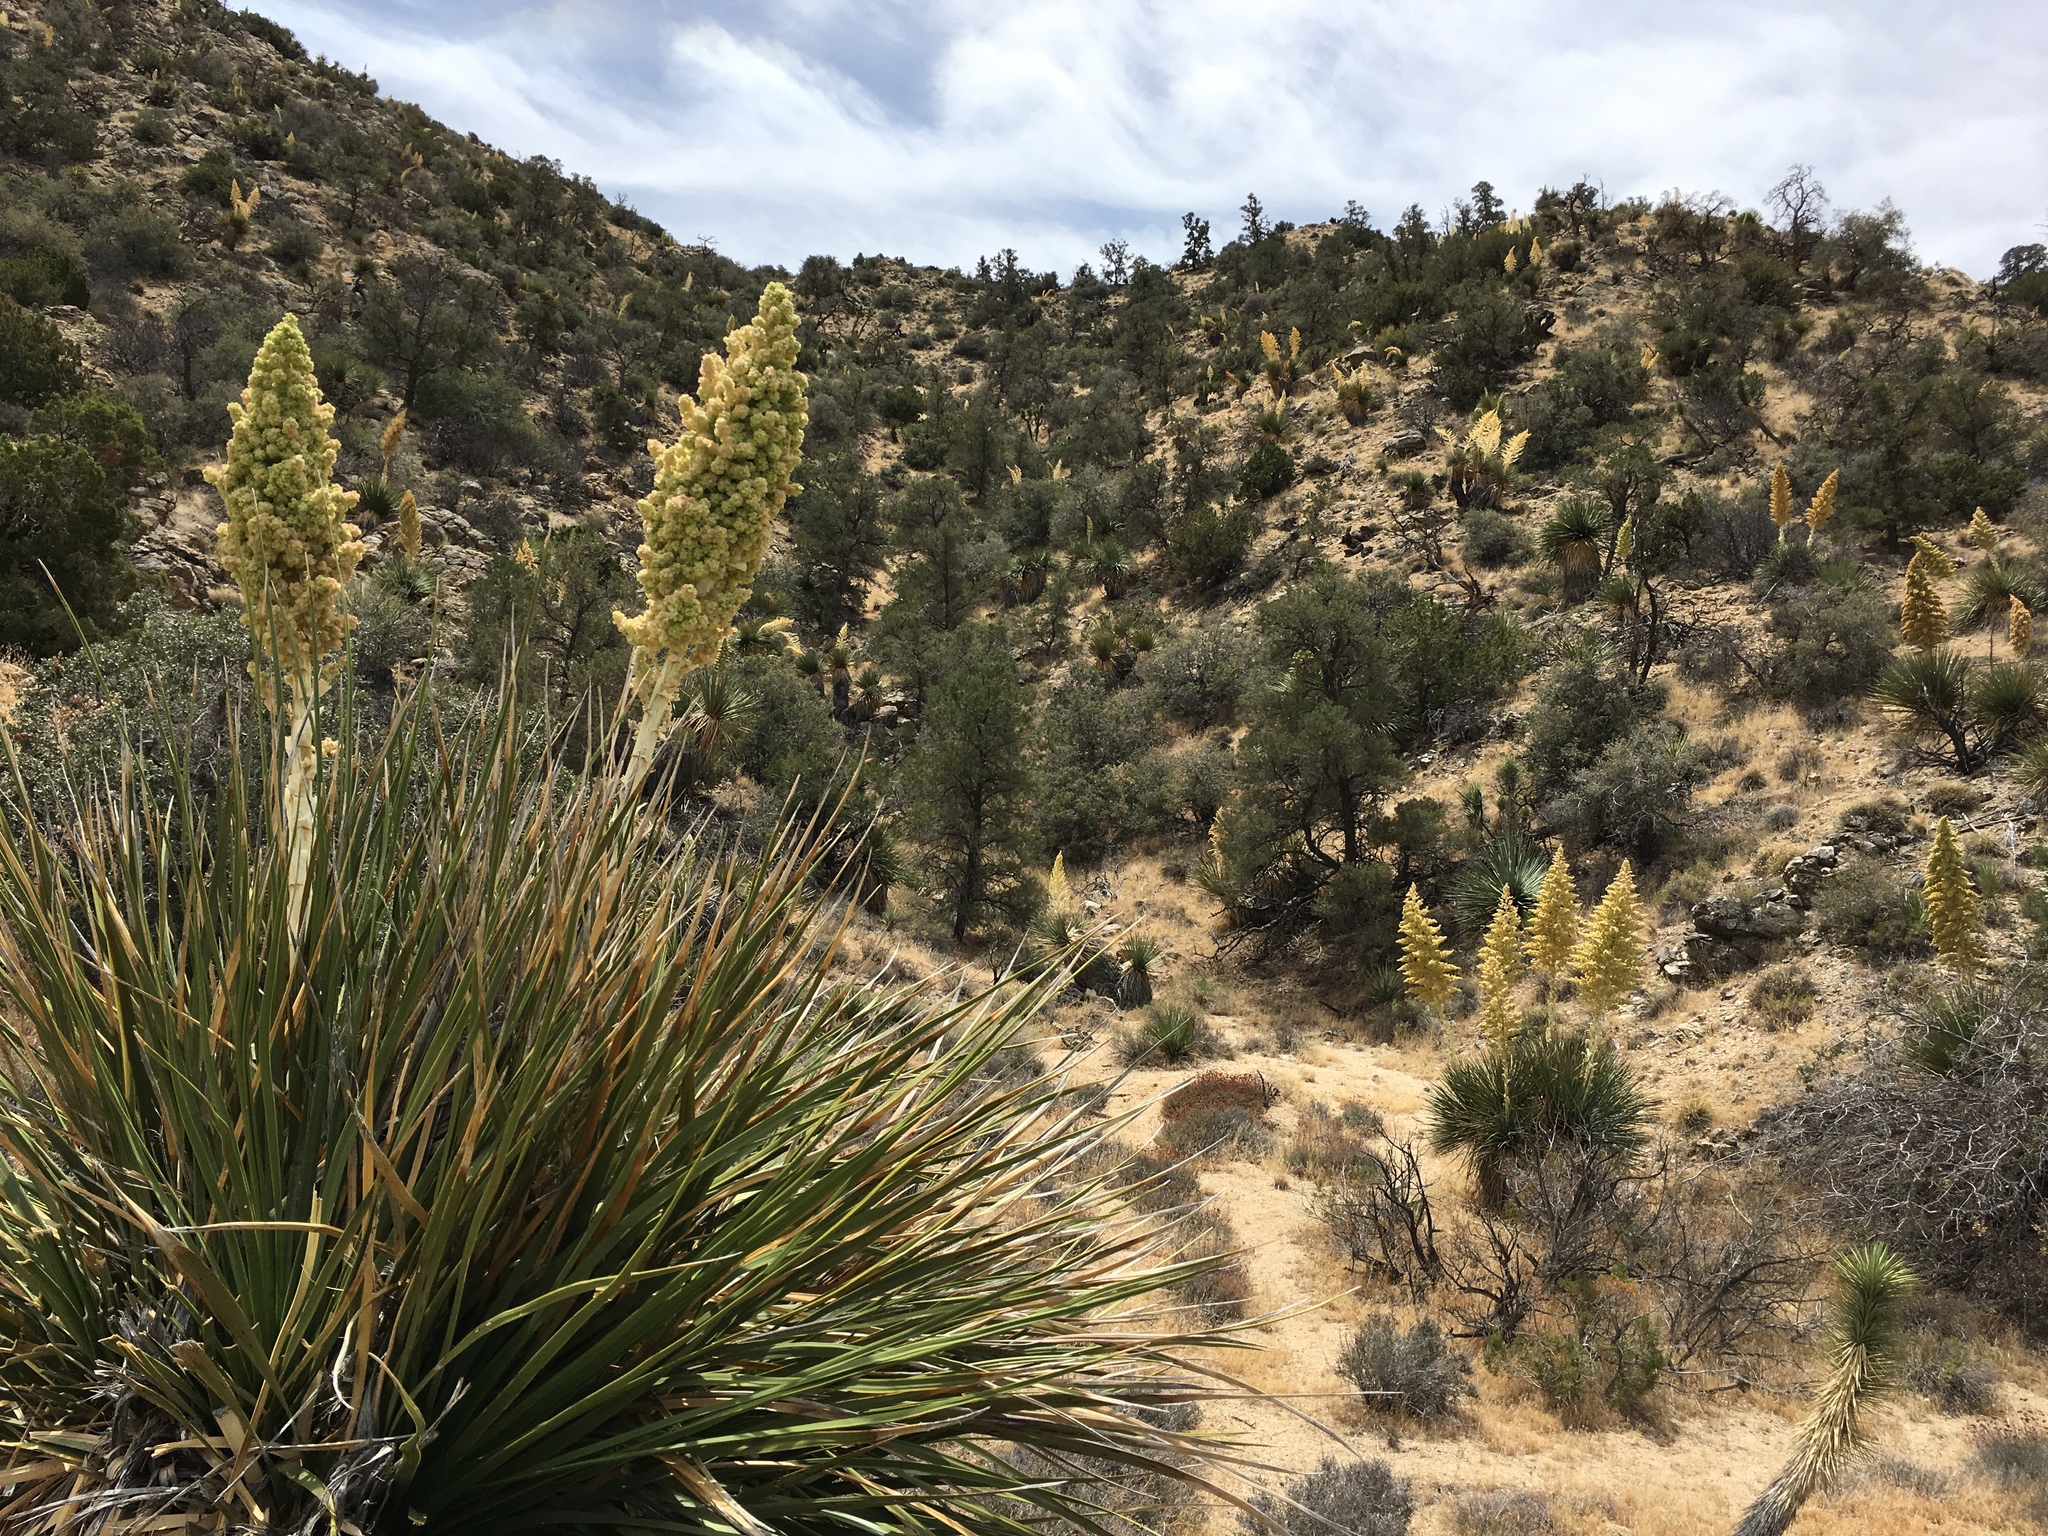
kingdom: Plantae
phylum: Tracheophyta
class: Liliopsida
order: Asparagales
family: Asparagaceae
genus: Nolina
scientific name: Nolina parryi
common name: Parry nolina
